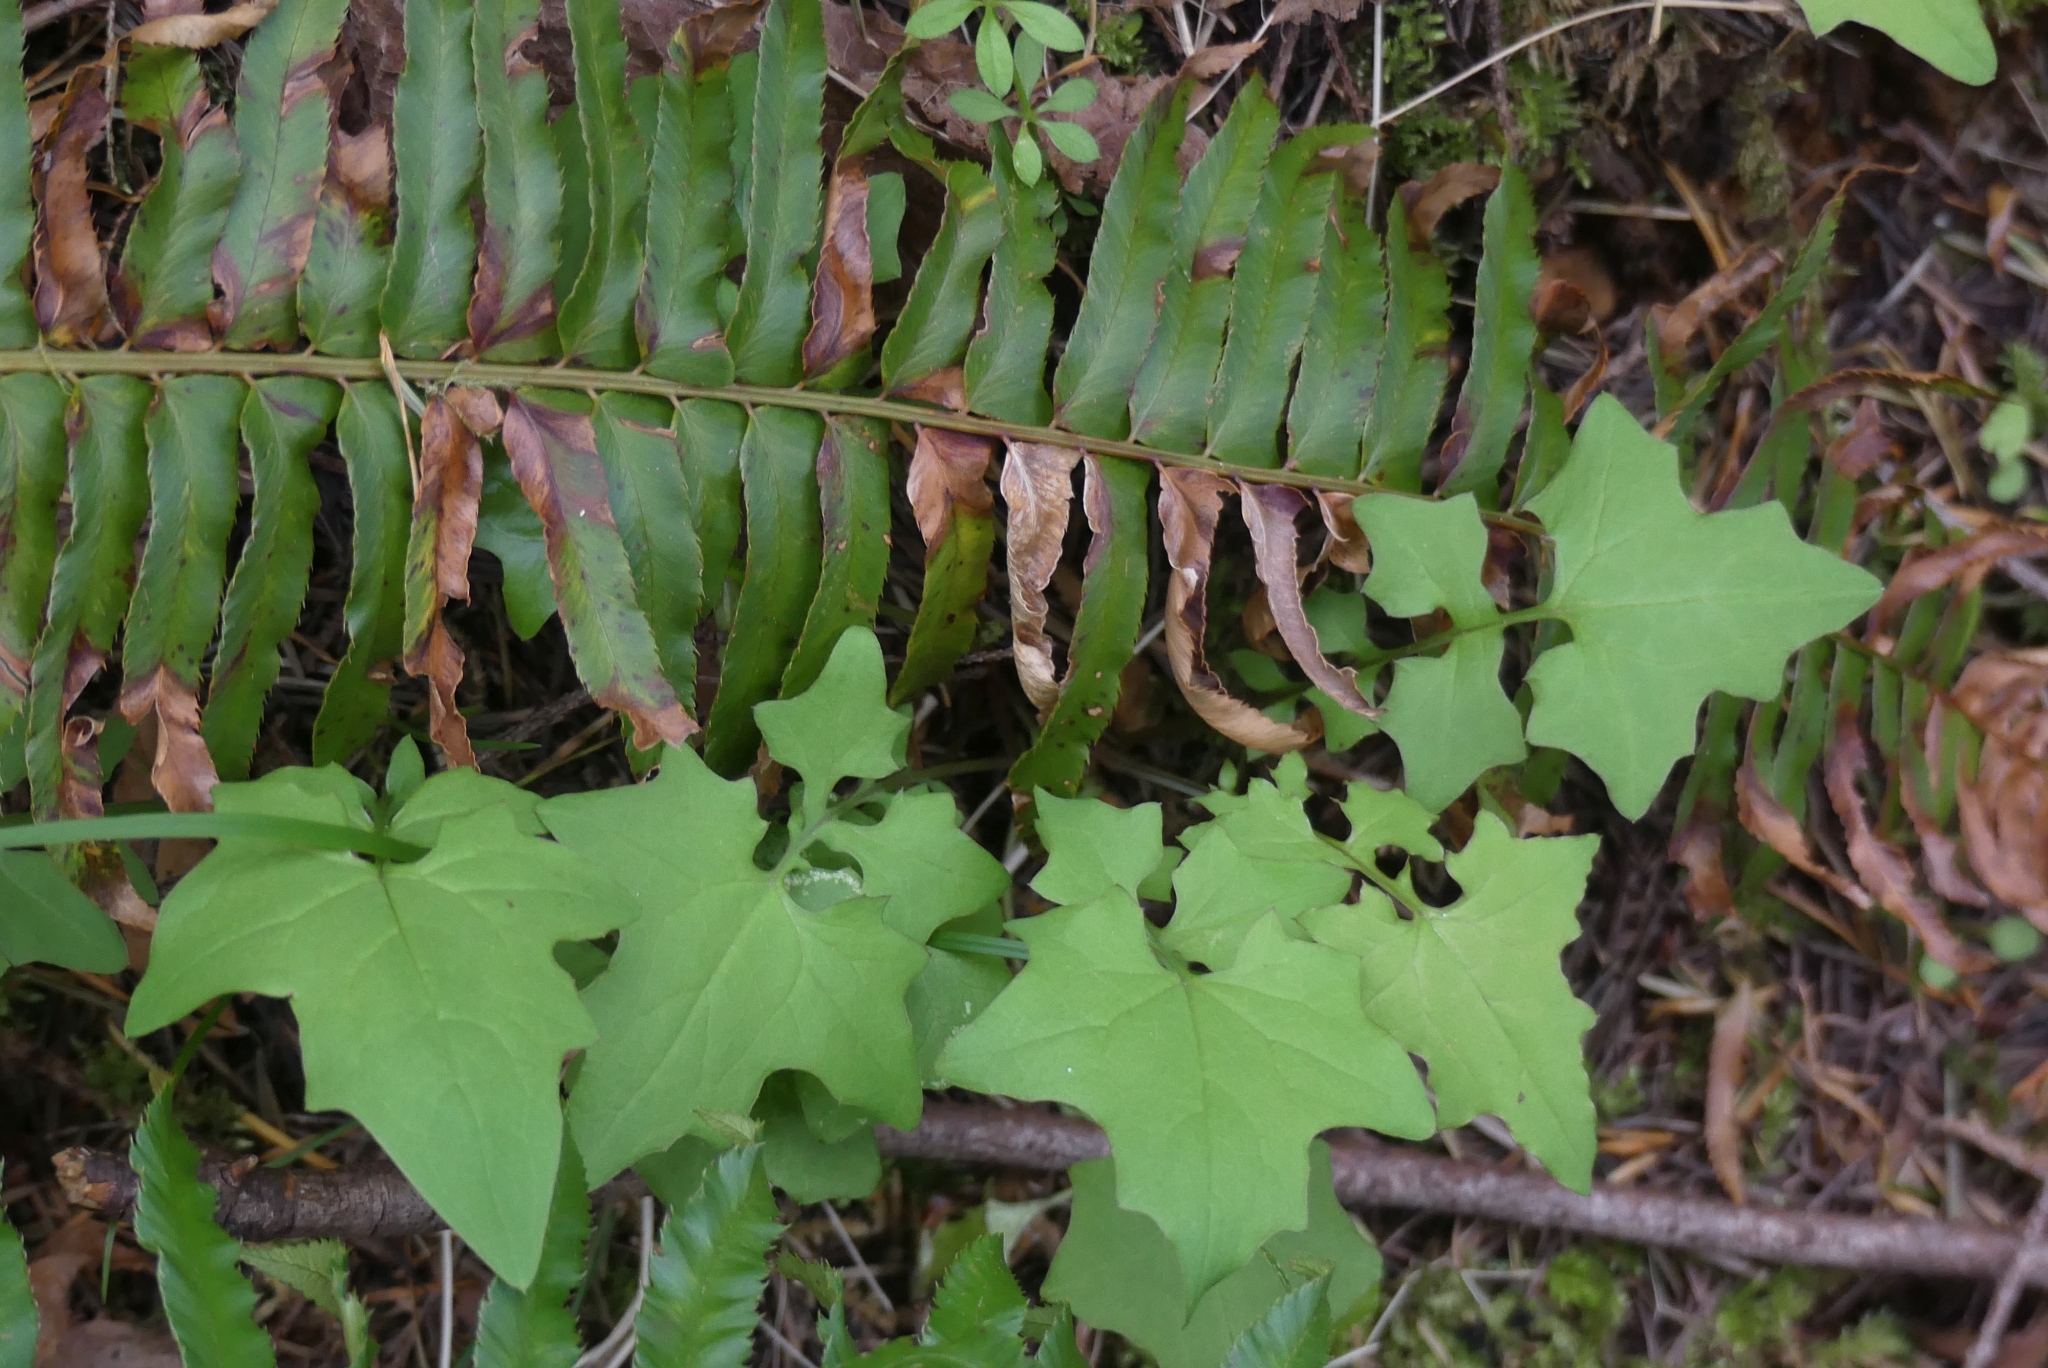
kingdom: Plantae
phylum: Tracheophyta
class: Magnoliopsida
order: Asterales
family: Asteraceae
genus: Mycelis
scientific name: Mycelis muralis
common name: Wall lettuce
